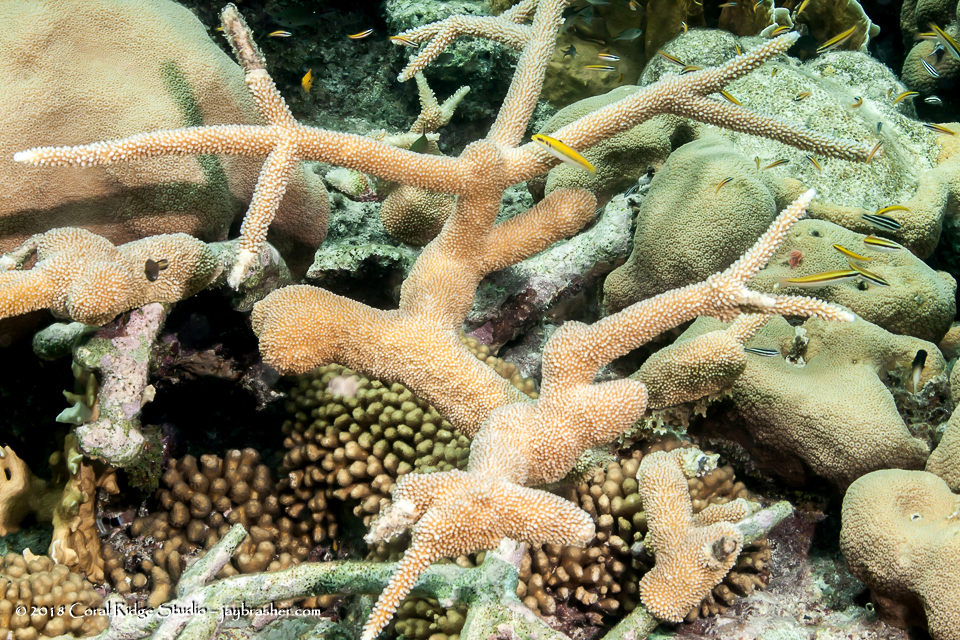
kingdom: Animalia
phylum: Cnidaria
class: Anthozoa
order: Scleractinia
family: Acroporidae
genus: Acropora
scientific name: Acropora cervicornis
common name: Staghorn coral
